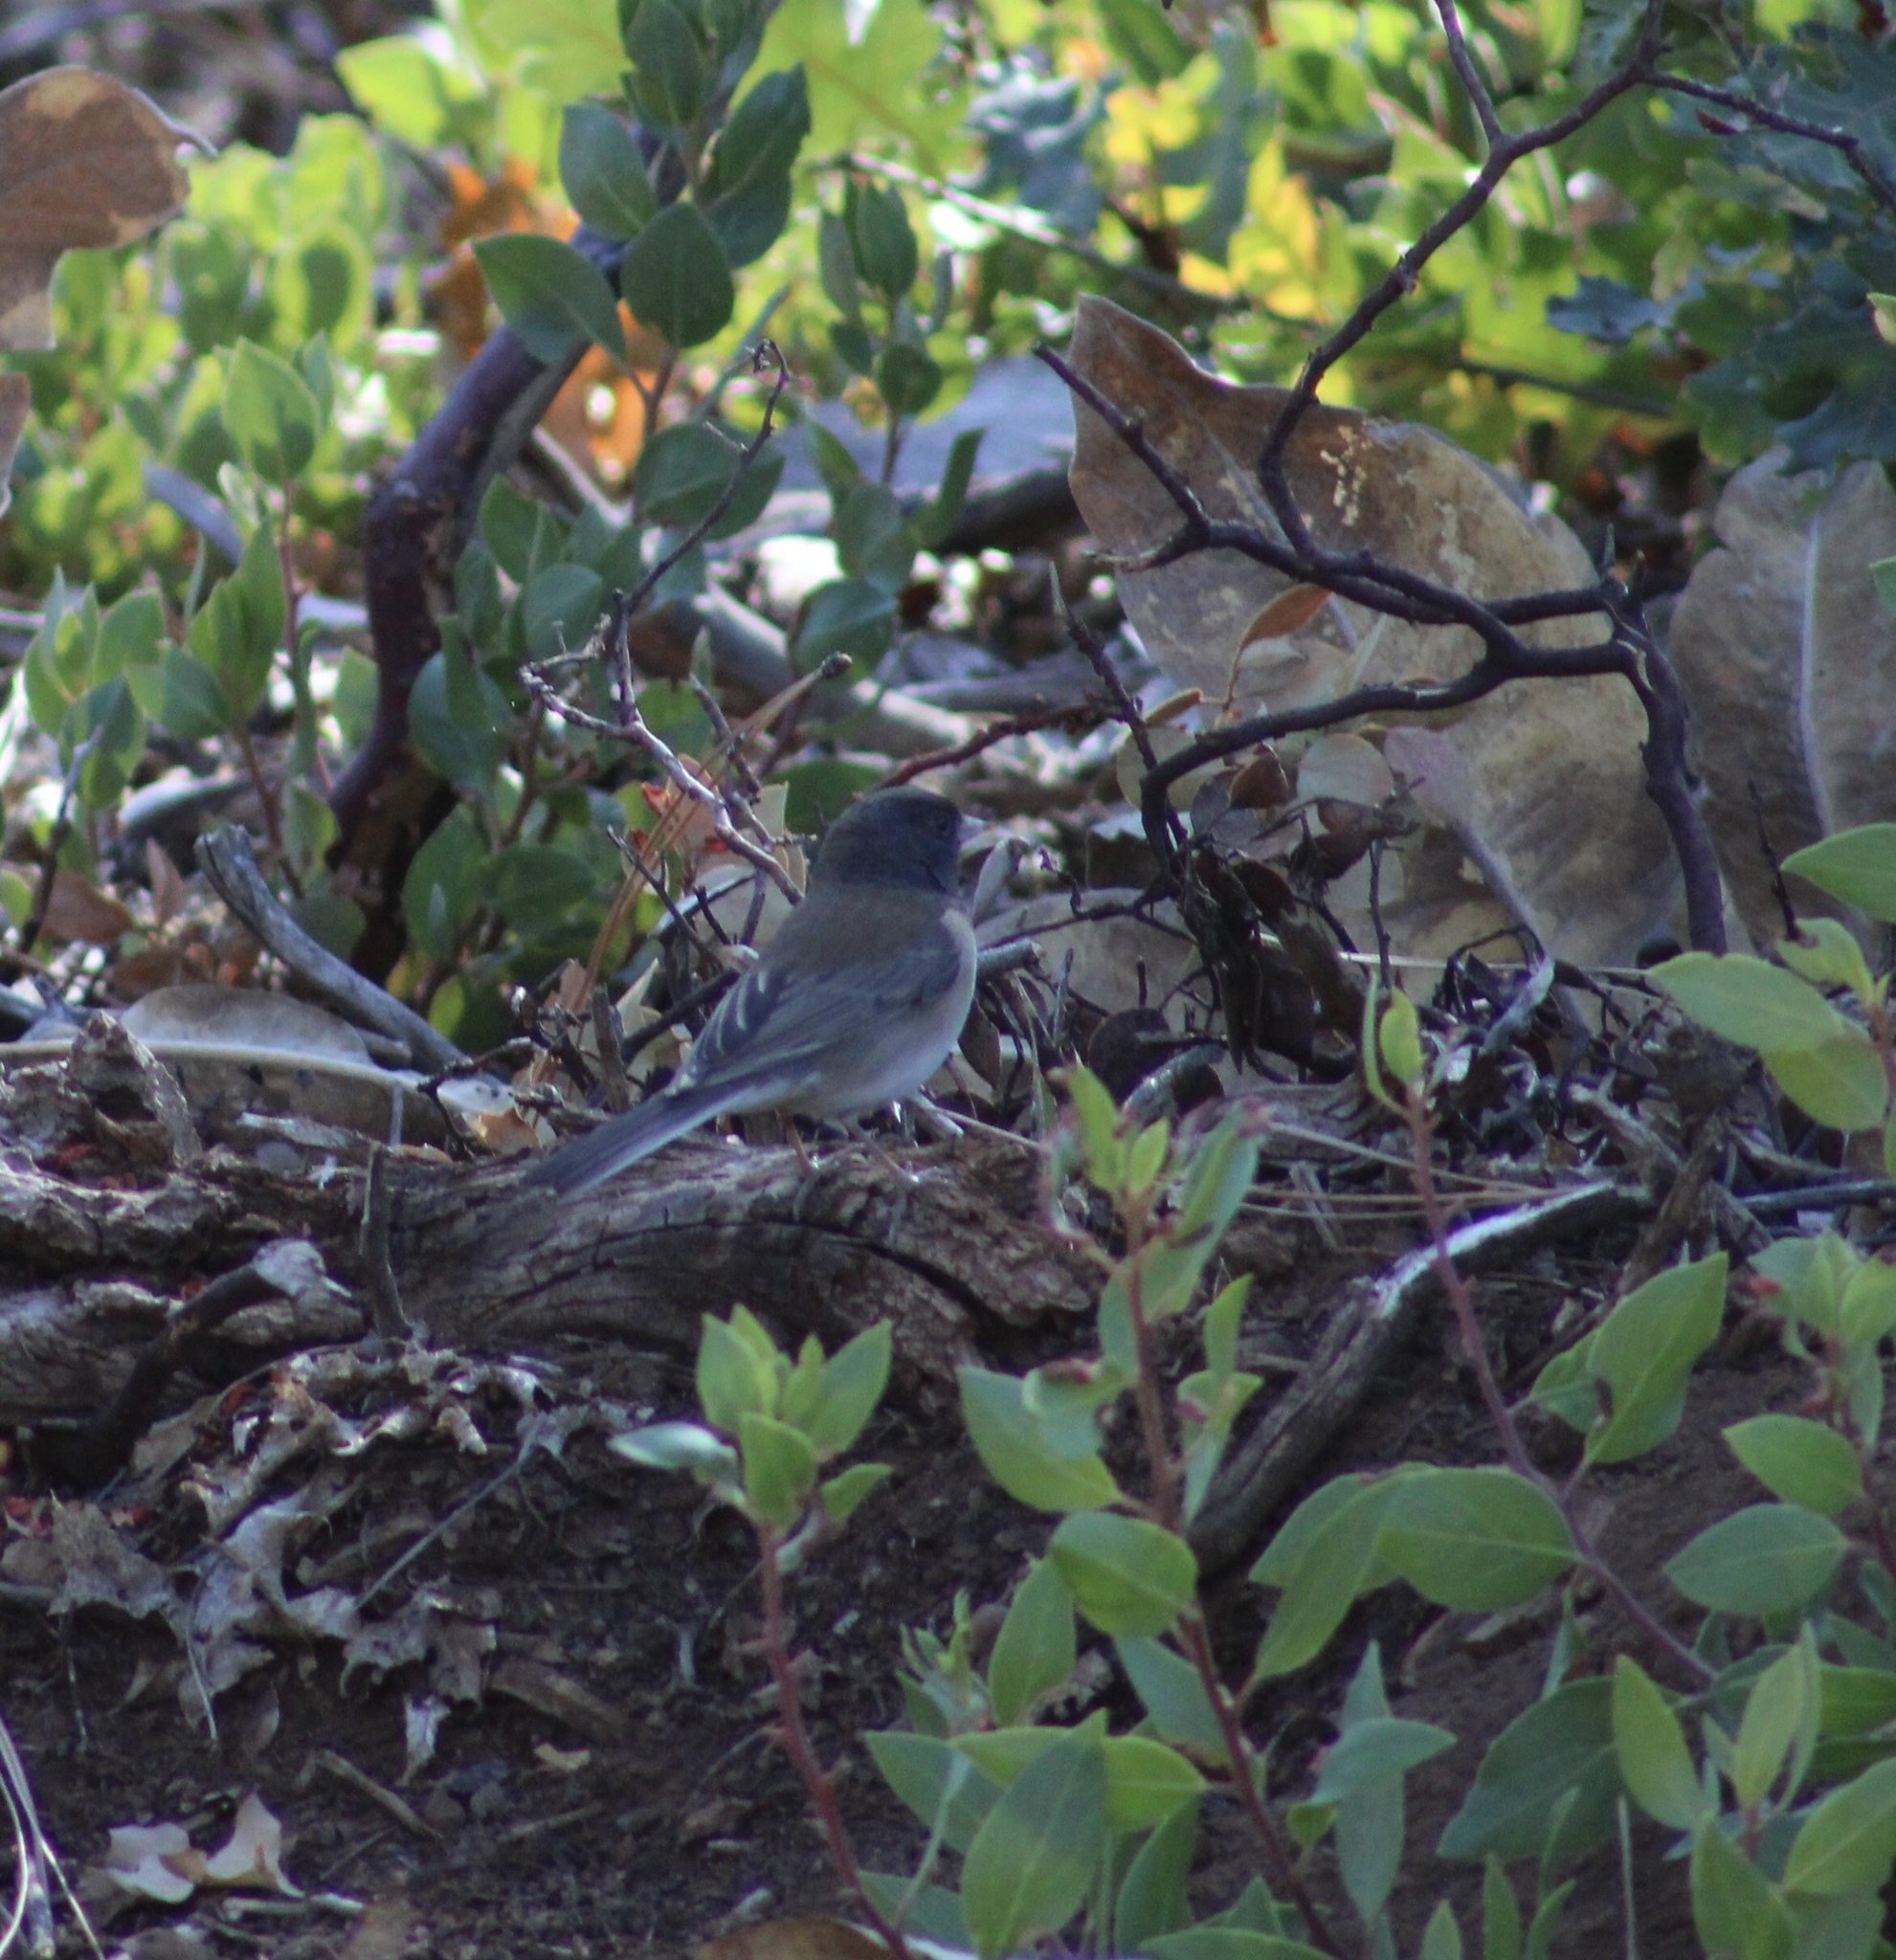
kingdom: Animalia
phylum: Chordata
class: Aves
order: Passeriformes
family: Passerellidae
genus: Junco
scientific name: Junco hyemalis
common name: Dark-eyed junco
